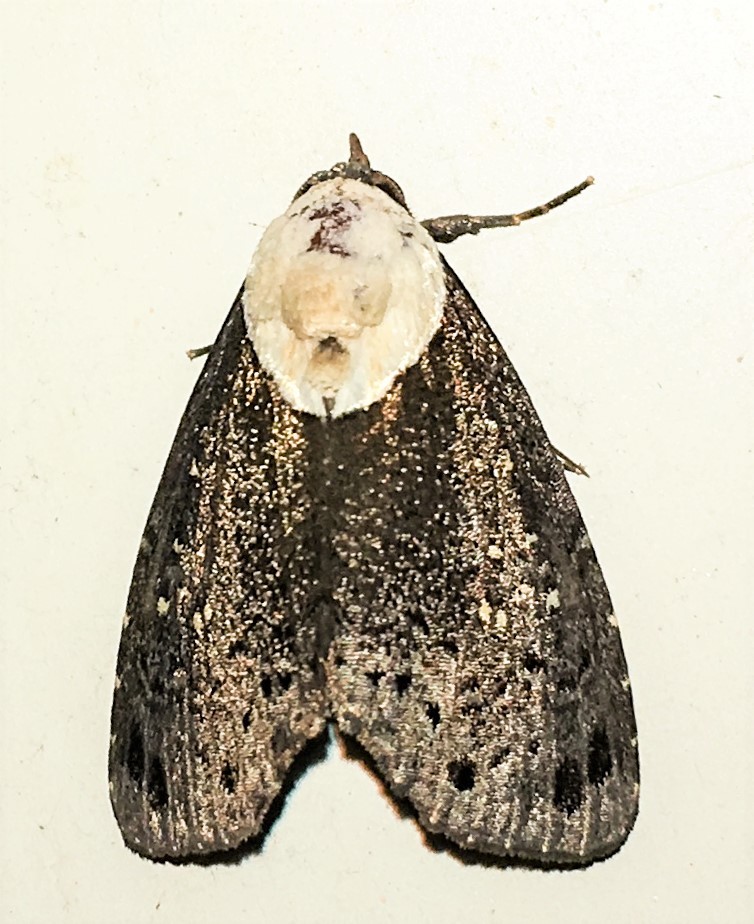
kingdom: Animalia
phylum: Arthropoda
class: Insecta
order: Lepidoptera
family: Nolidae
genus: Baileya
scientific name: Baileya rhizoleuca
